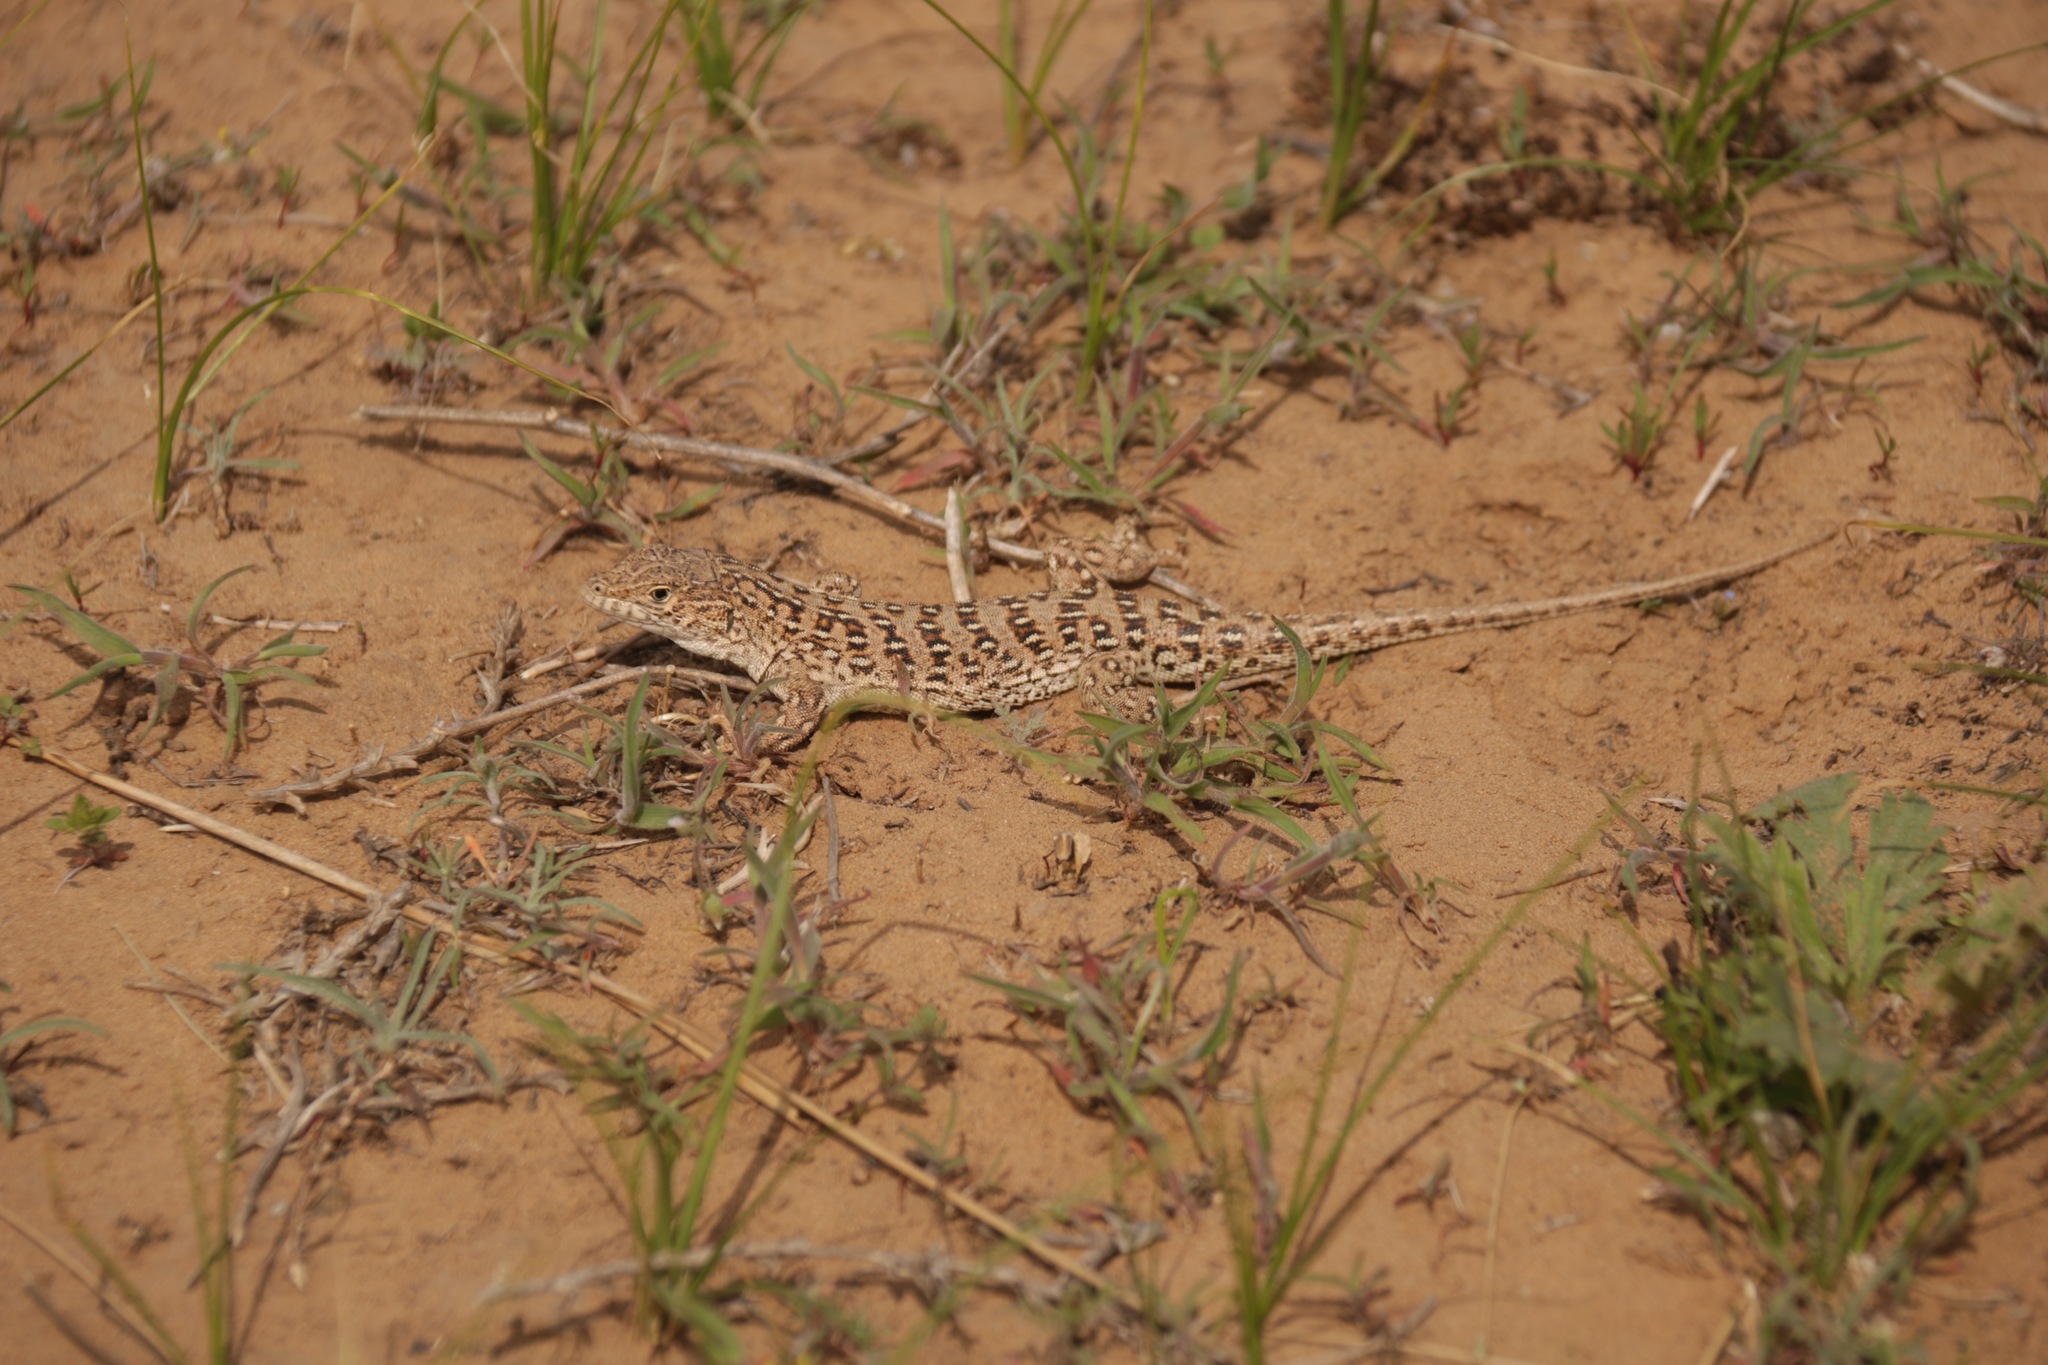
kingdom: Animalia
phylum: Chordata
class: Squamata
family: Lacertidae
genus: Eremias
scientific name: Eremias arguta
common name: Racerunner
